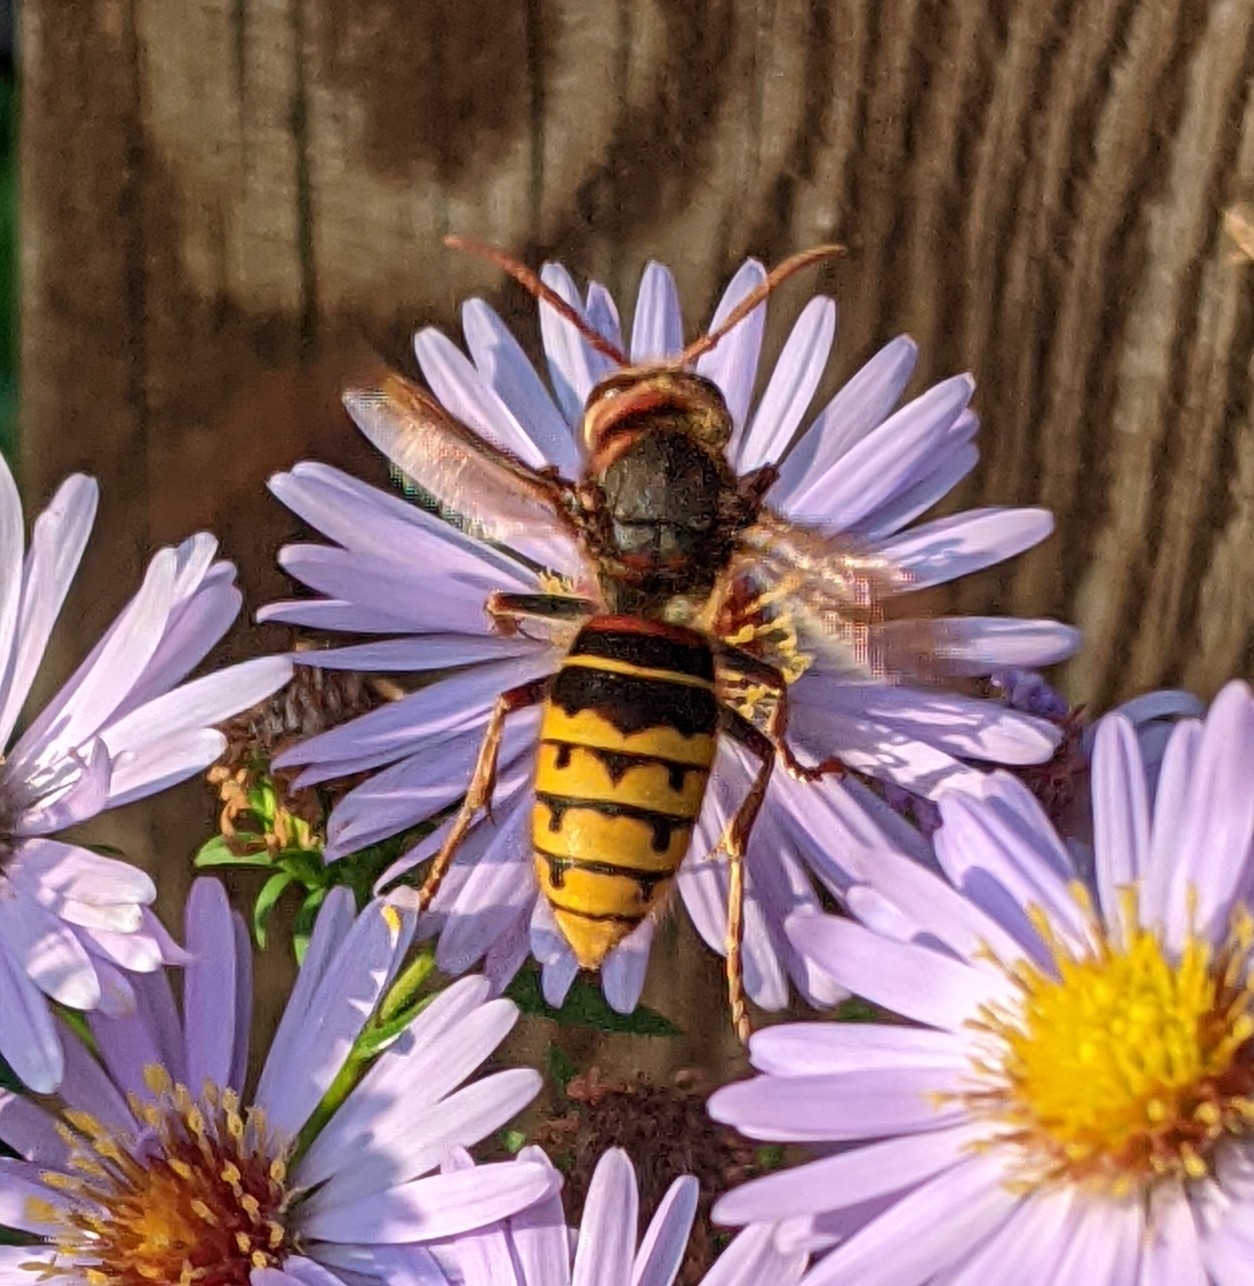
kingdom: Animalia
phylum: Arthropoda
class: Insecta
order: Hymenoptera
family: Vespidae
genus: Vespa
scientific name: Vespa crabro
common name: Hornet
